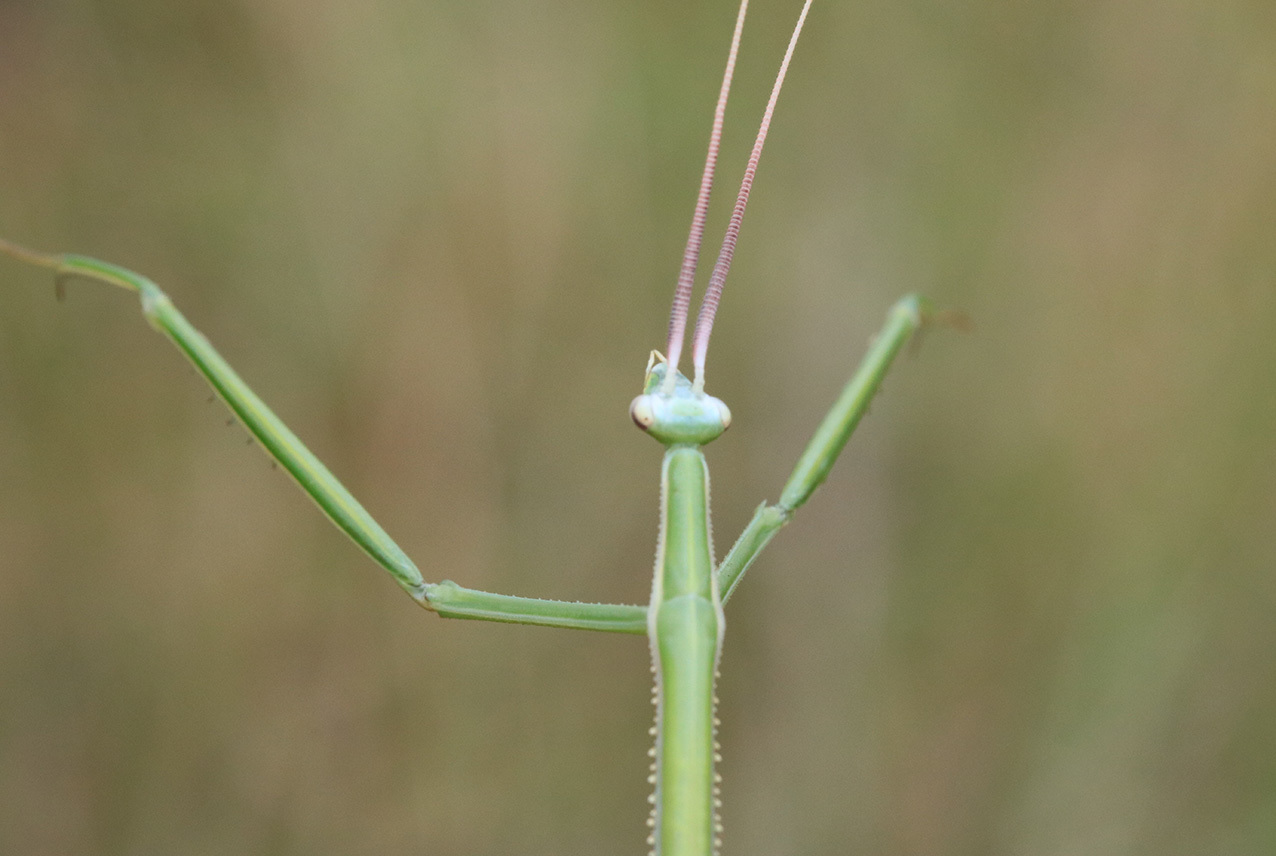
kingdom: Animalia
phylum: Arthropoda
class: Insecta
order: Mantodea
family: Coptopterygidae
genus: Brunneria
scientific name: Brunneria subaptera
